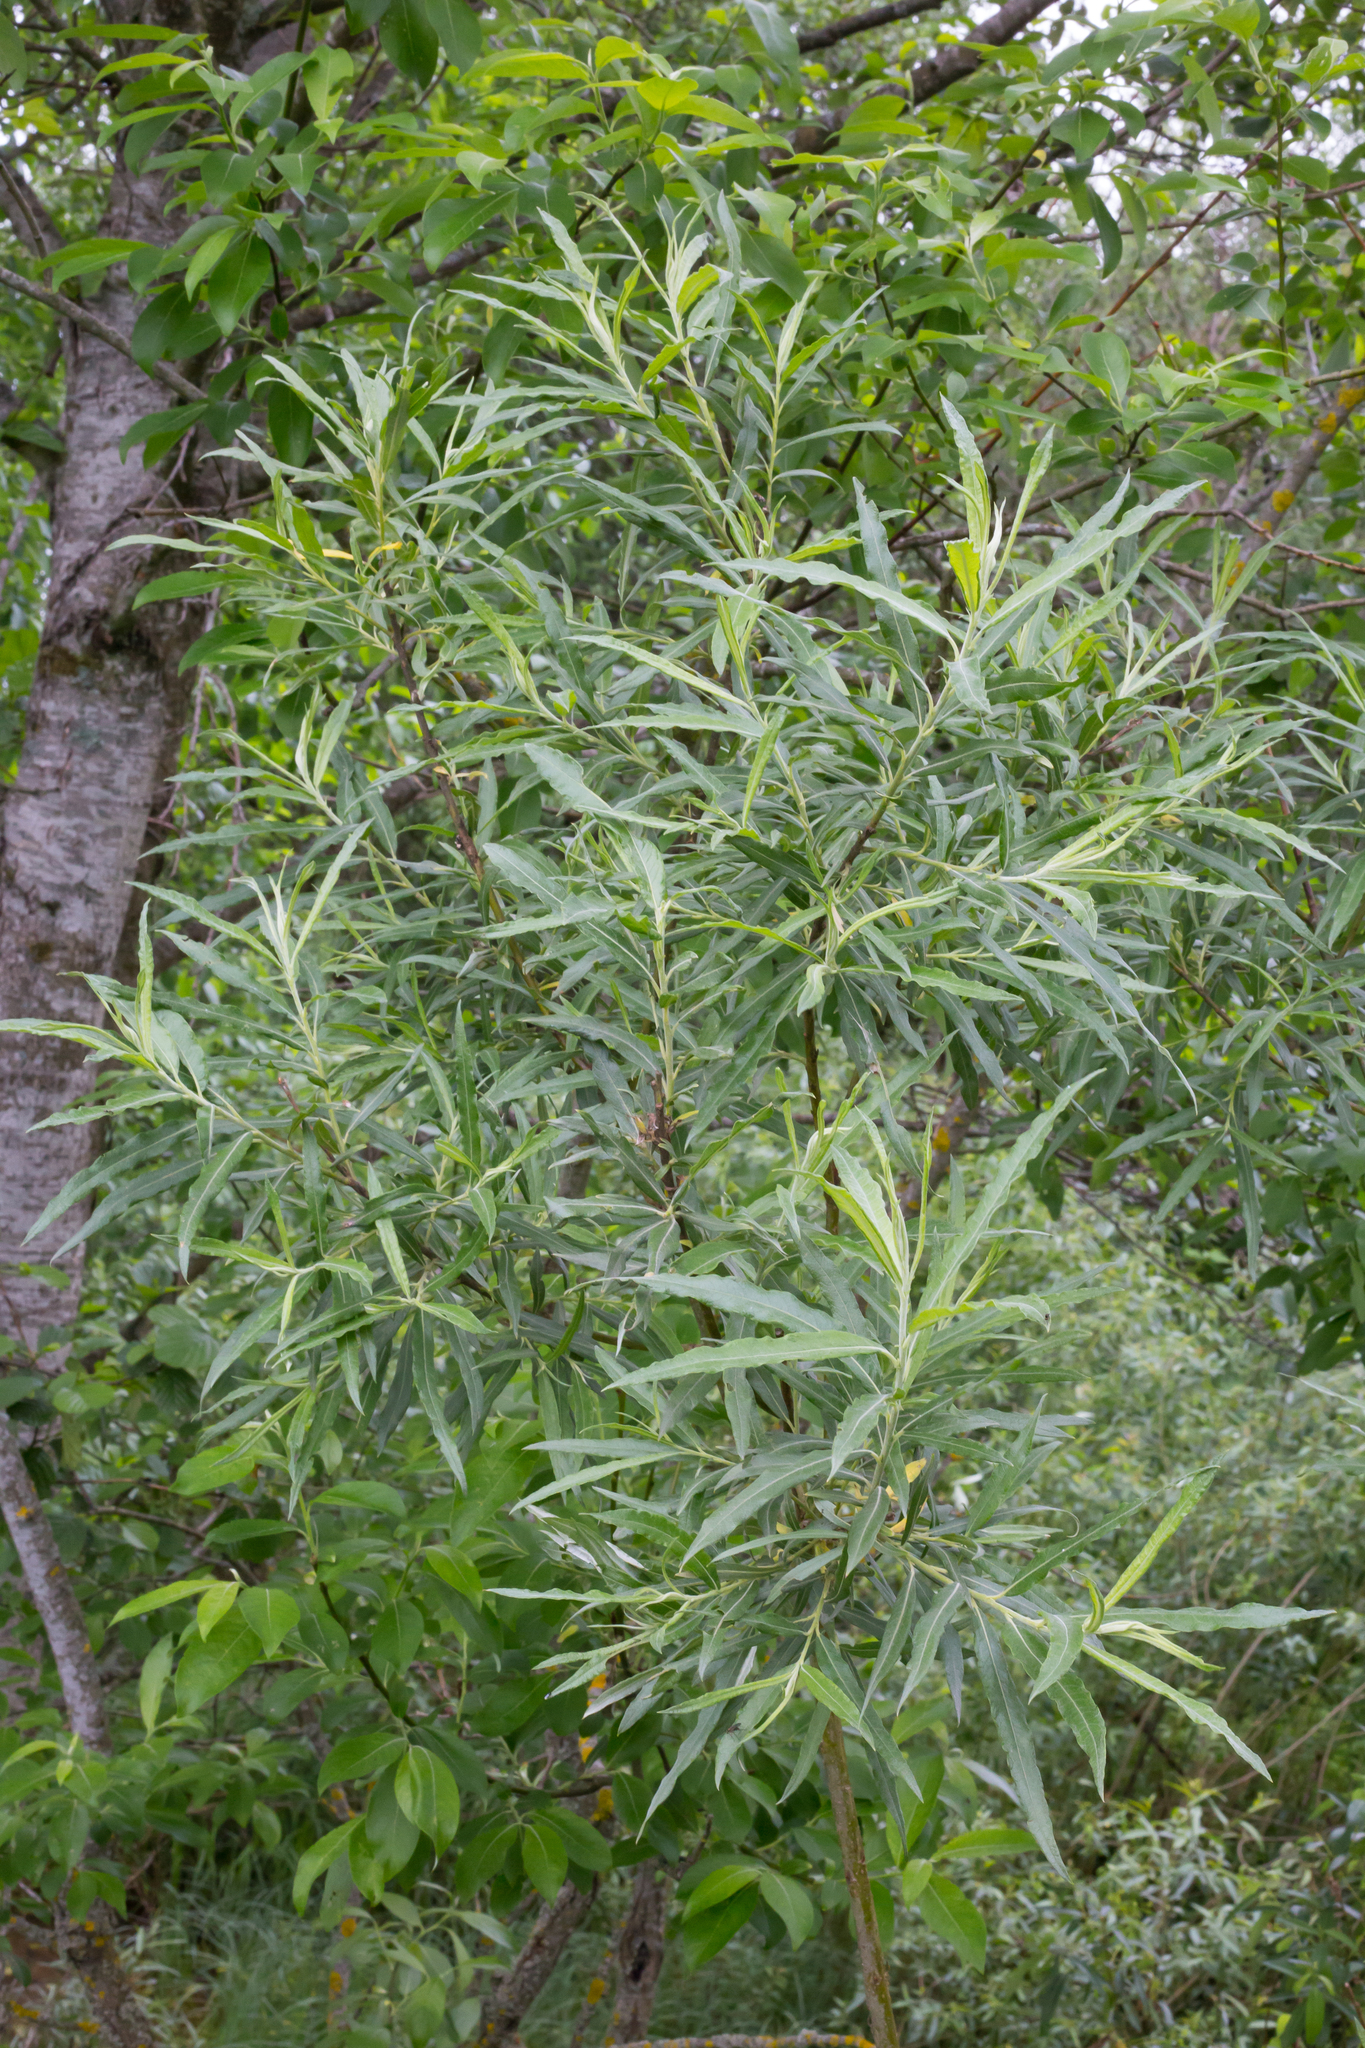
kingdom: Plantae
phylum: Tracheophyta
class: Magnoliopsida
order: Malpighiales
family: Salicaceae
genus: Salix
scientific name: Salix viminalis
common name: Osier
